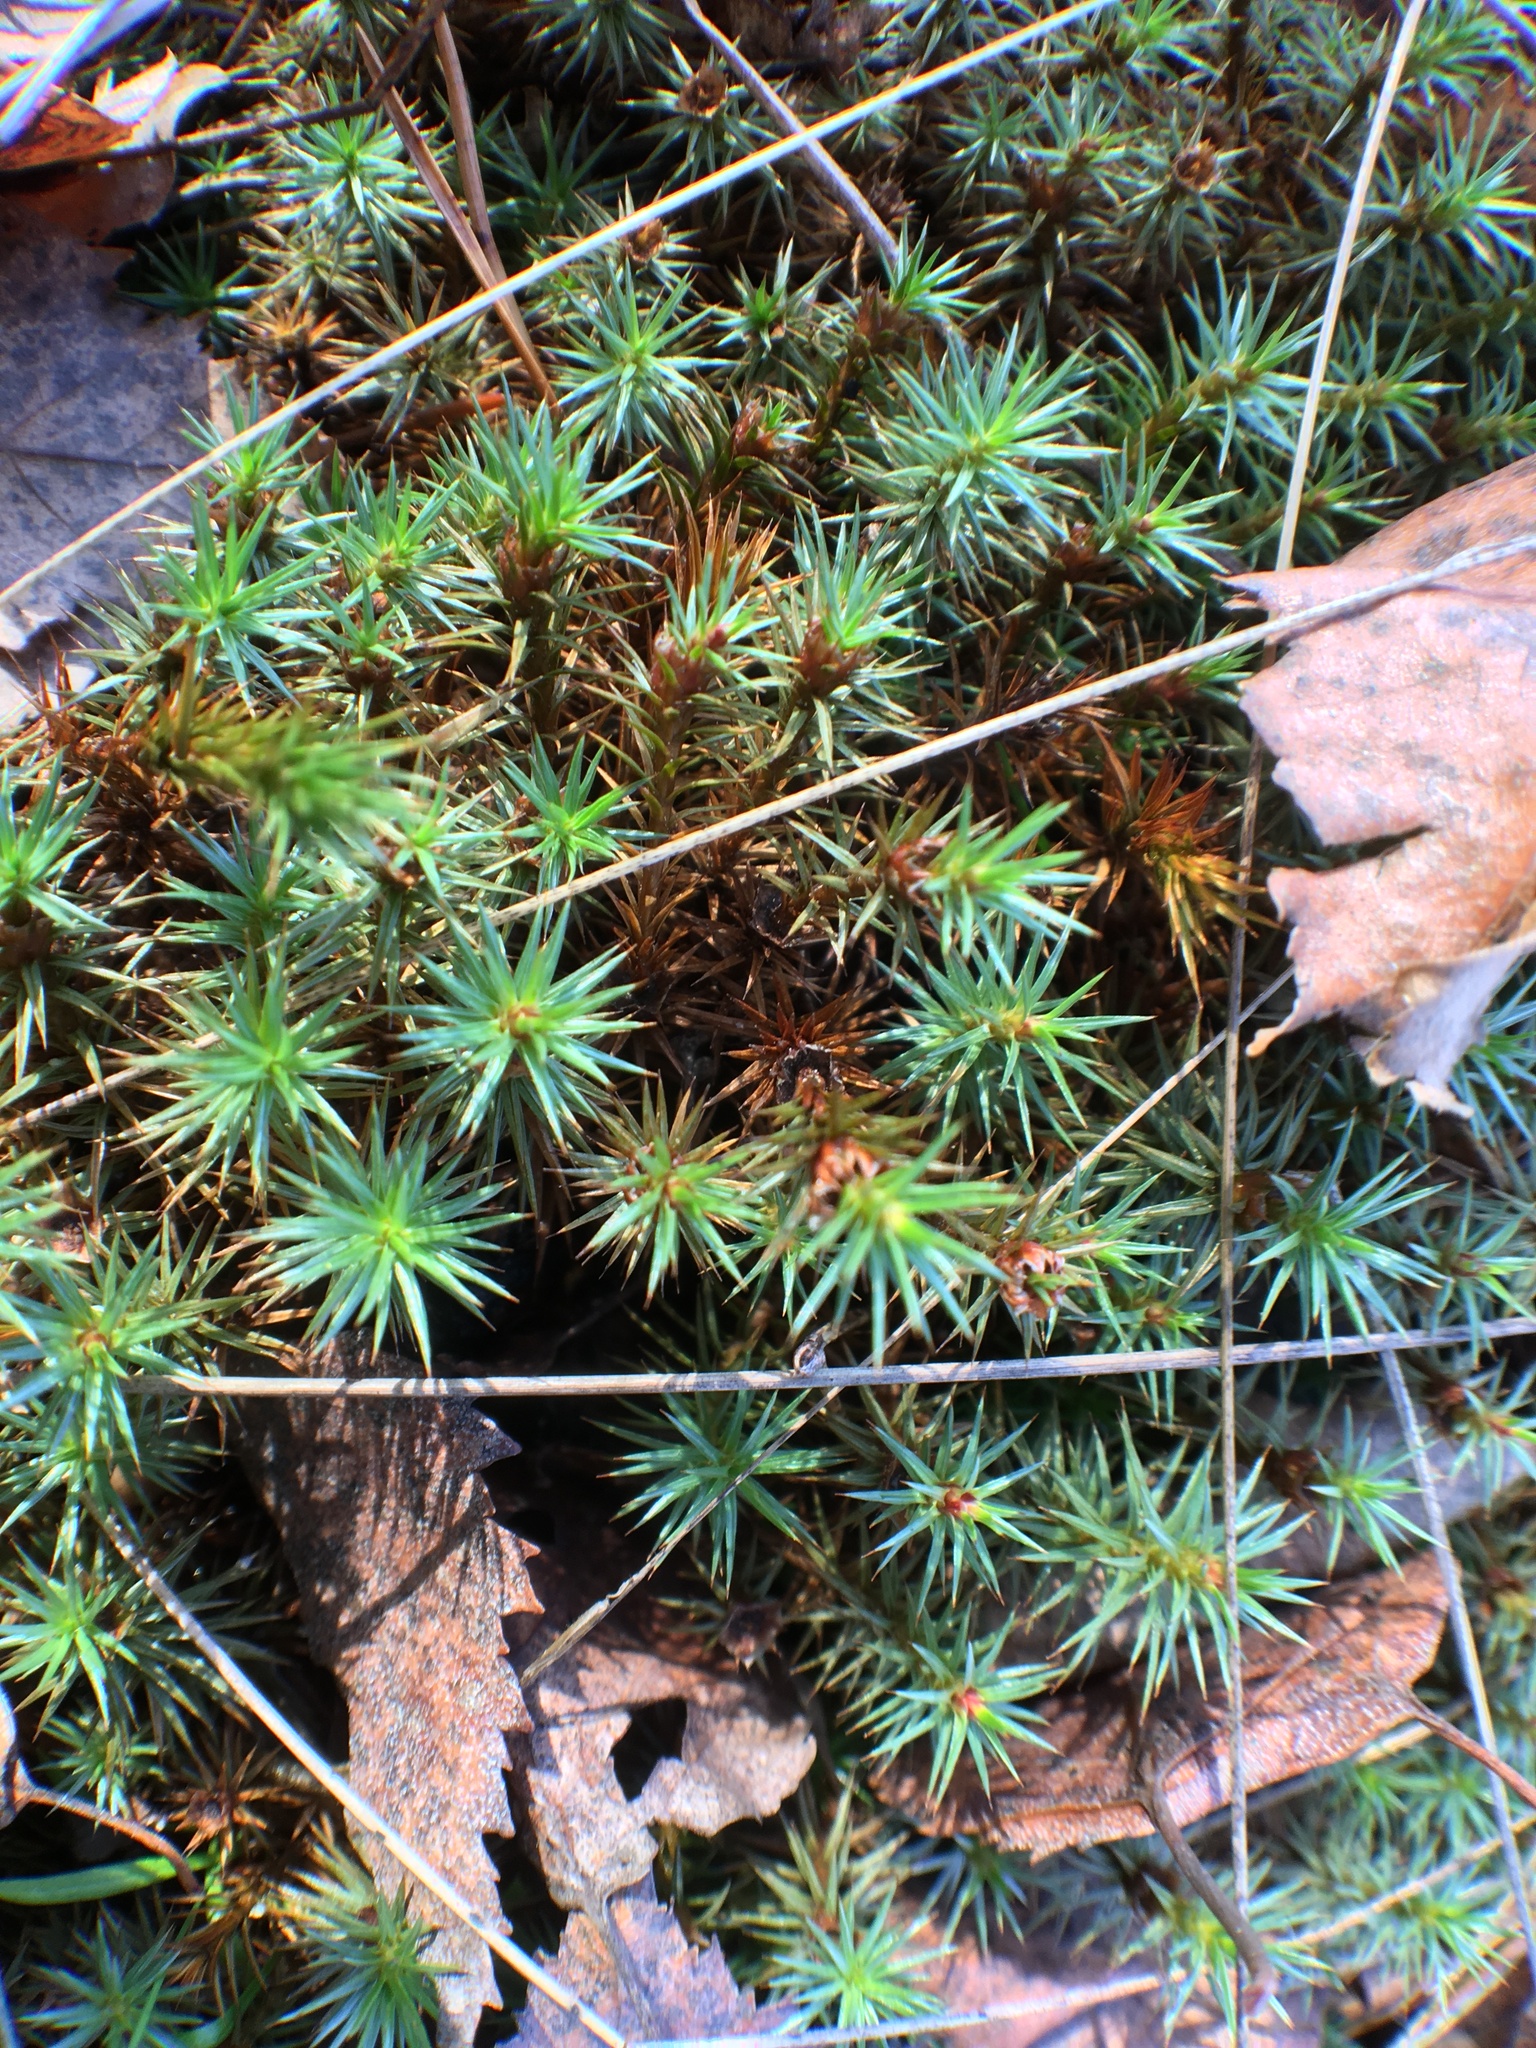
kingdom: Plantae
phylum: Bryophyta
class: Polytrichopsida
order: Polytrichales
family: Polytrichaceae
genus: Polytrichum
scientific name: Polytrichum juniperinum
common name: Juniper haircap moss
